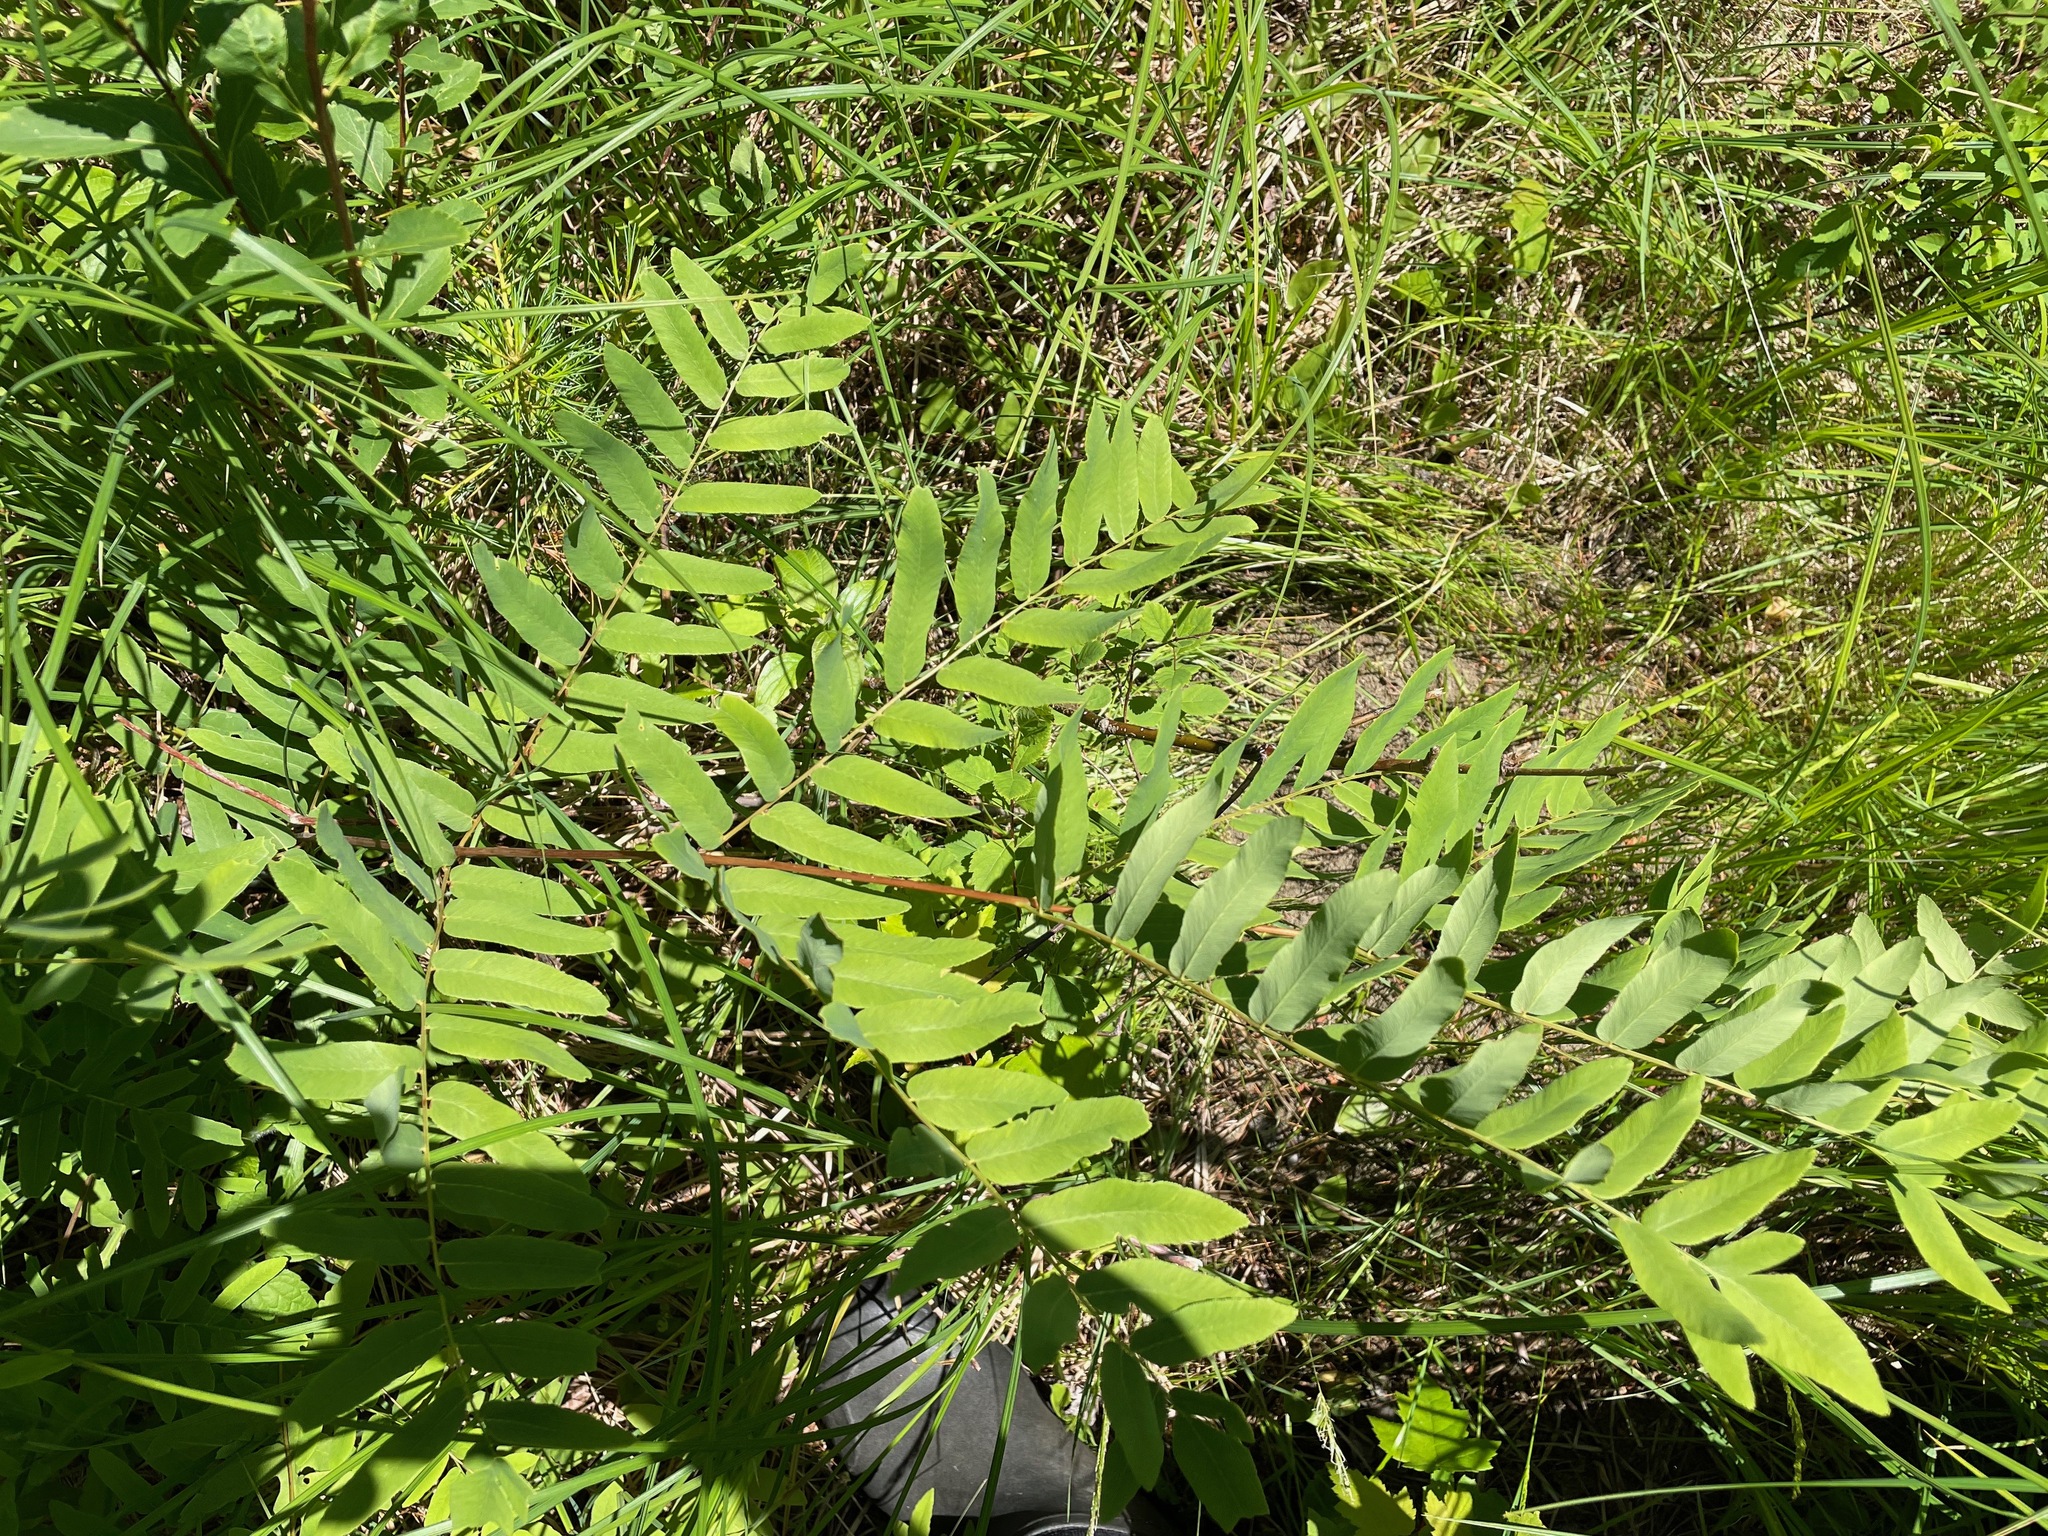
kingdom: Plantae
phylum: Tracheophyta
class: Polypodiopsida
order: Osmundales
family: Osmundaceae
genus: Osmunda
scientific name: Osmunda spectabilis
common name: American royal fern
